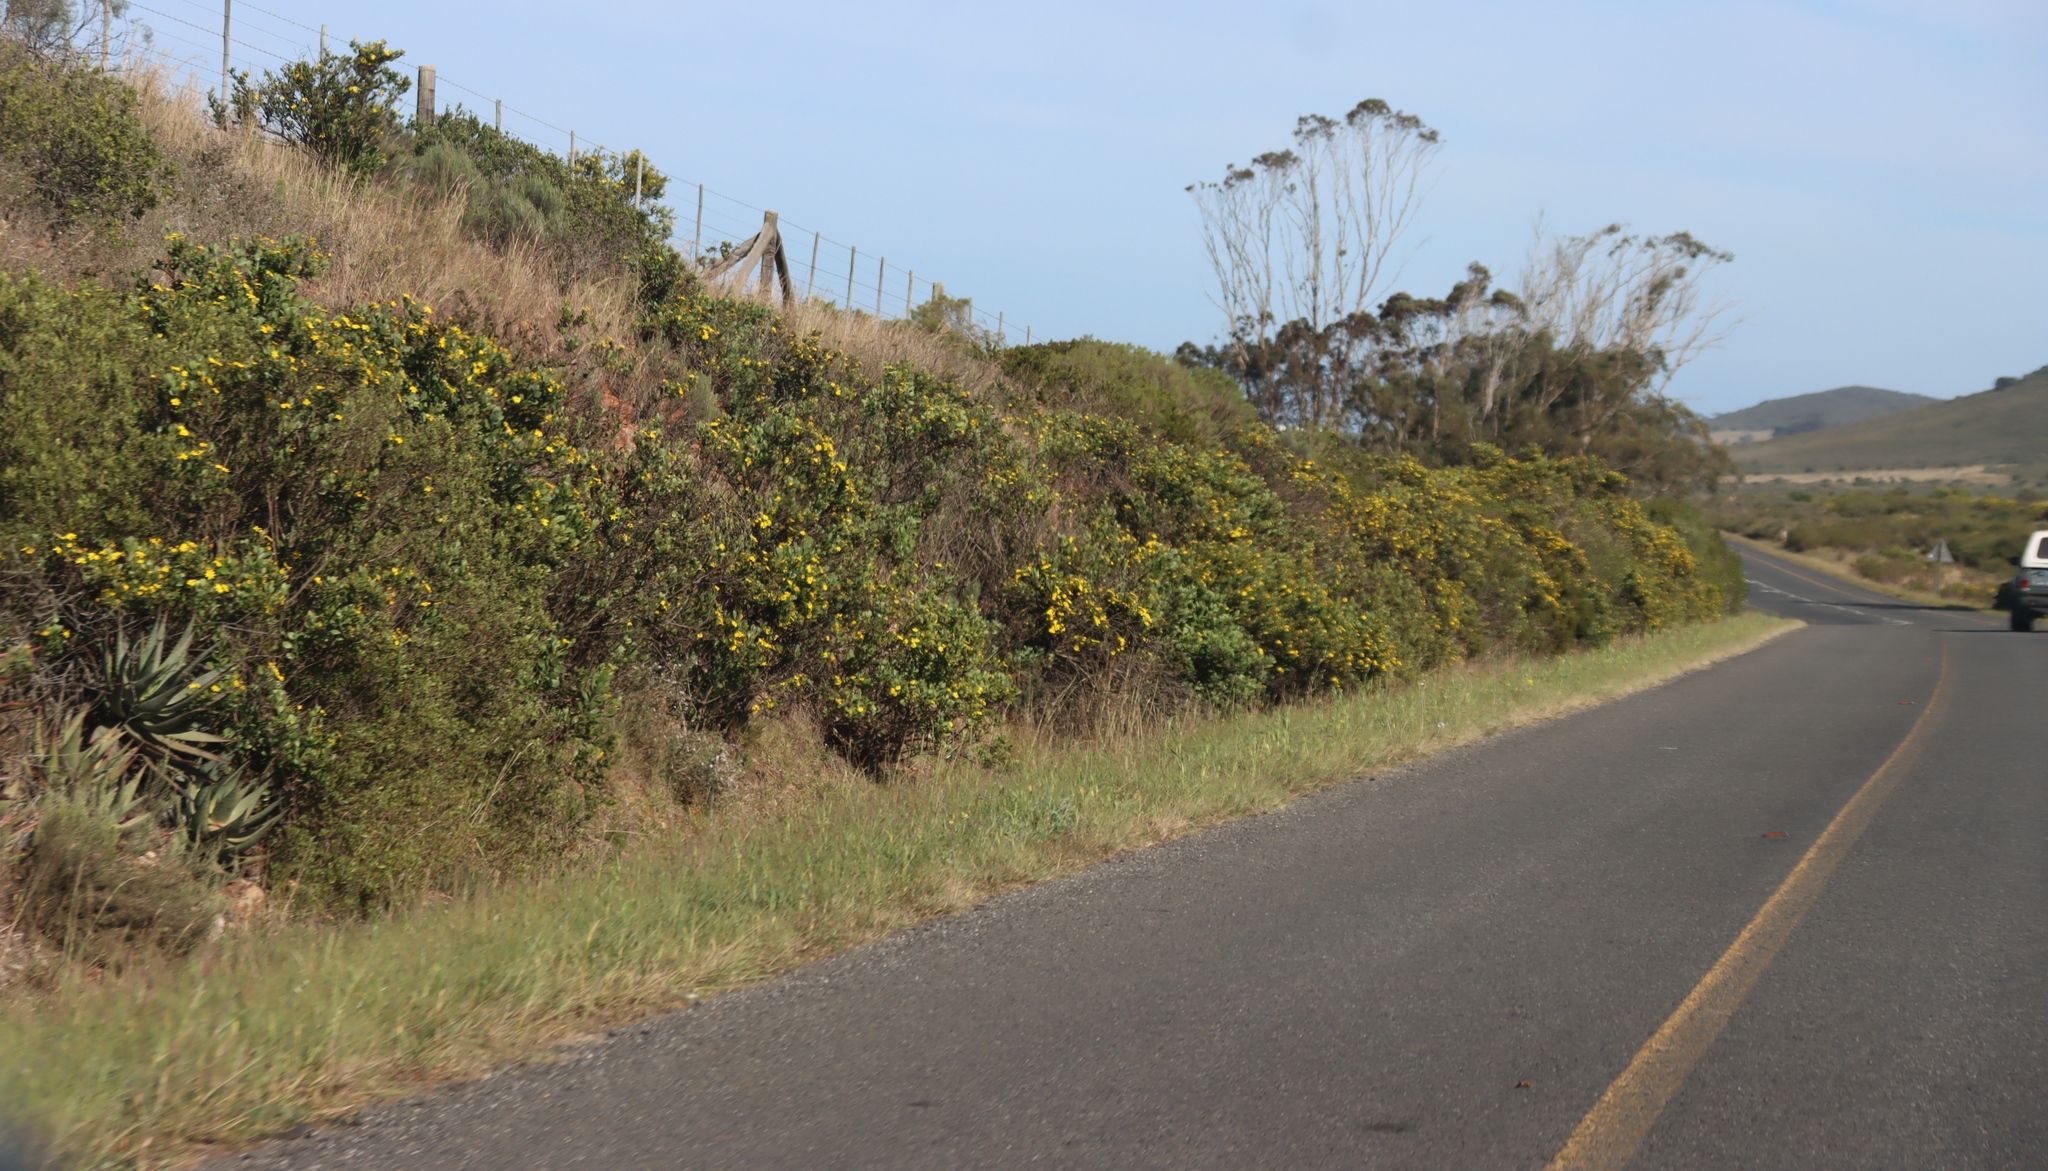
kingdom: Plantae
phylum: Tracheophyta
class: Magnoliopsida
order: Asterales
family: Asteraceae
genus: Osteospermum
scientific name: Osteospermum moniliferum
